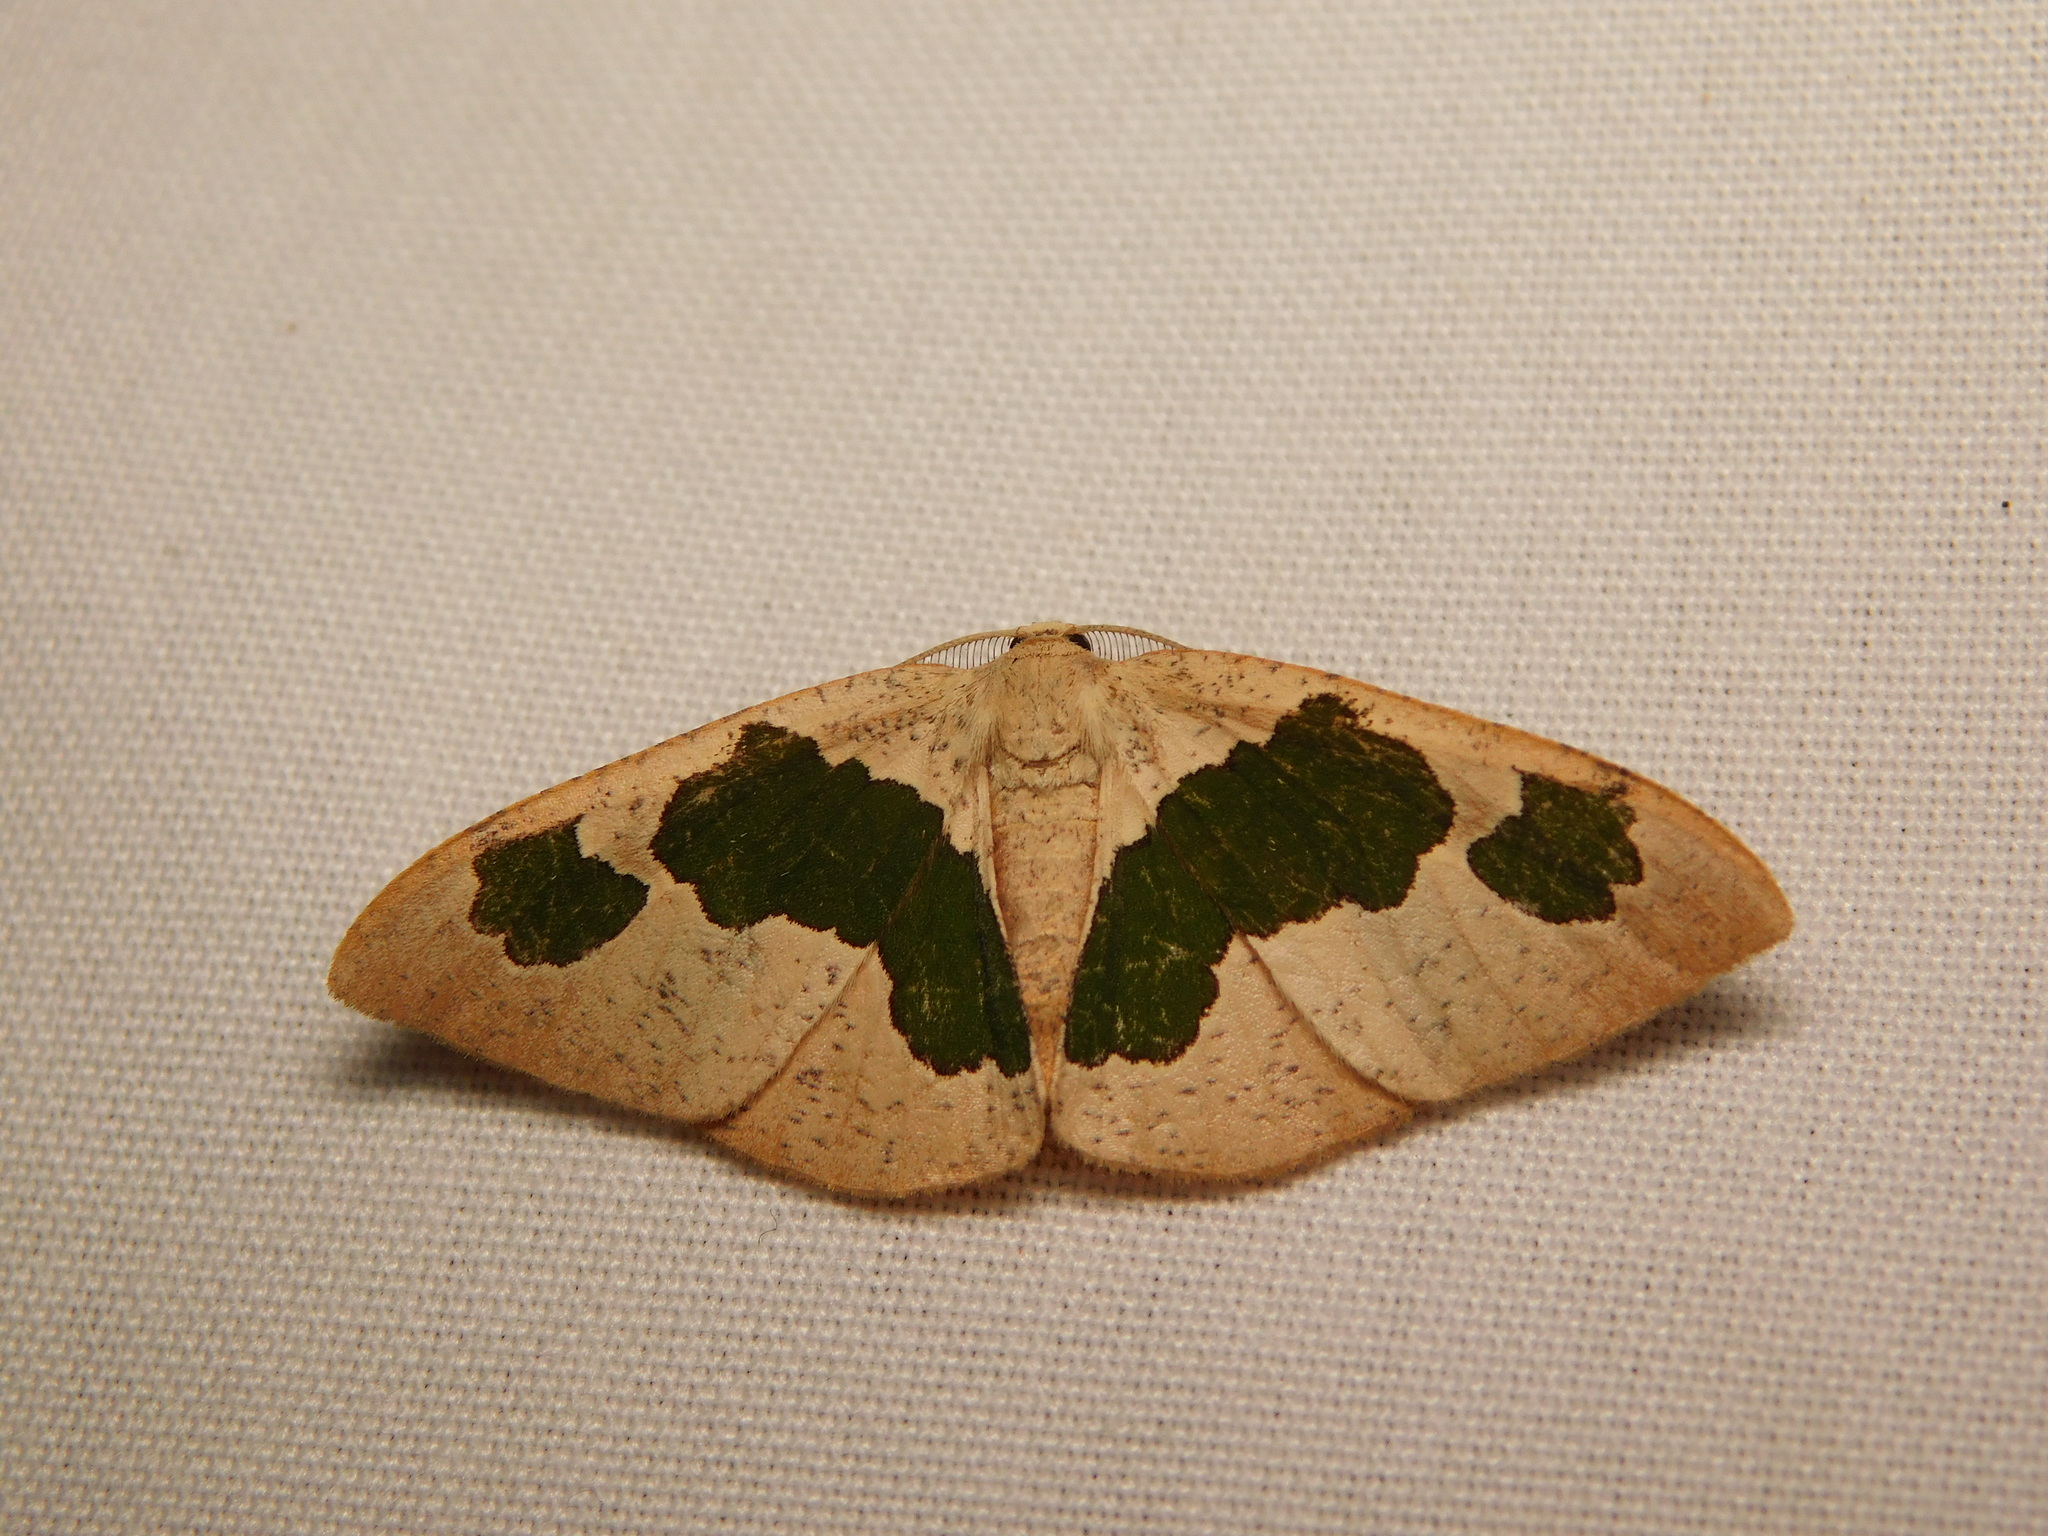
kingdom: Animalia
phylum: Arthropoda
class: Insecta
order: Lepidoptera
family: Geometridae
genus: Celenna
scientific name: Celenna festivaria
